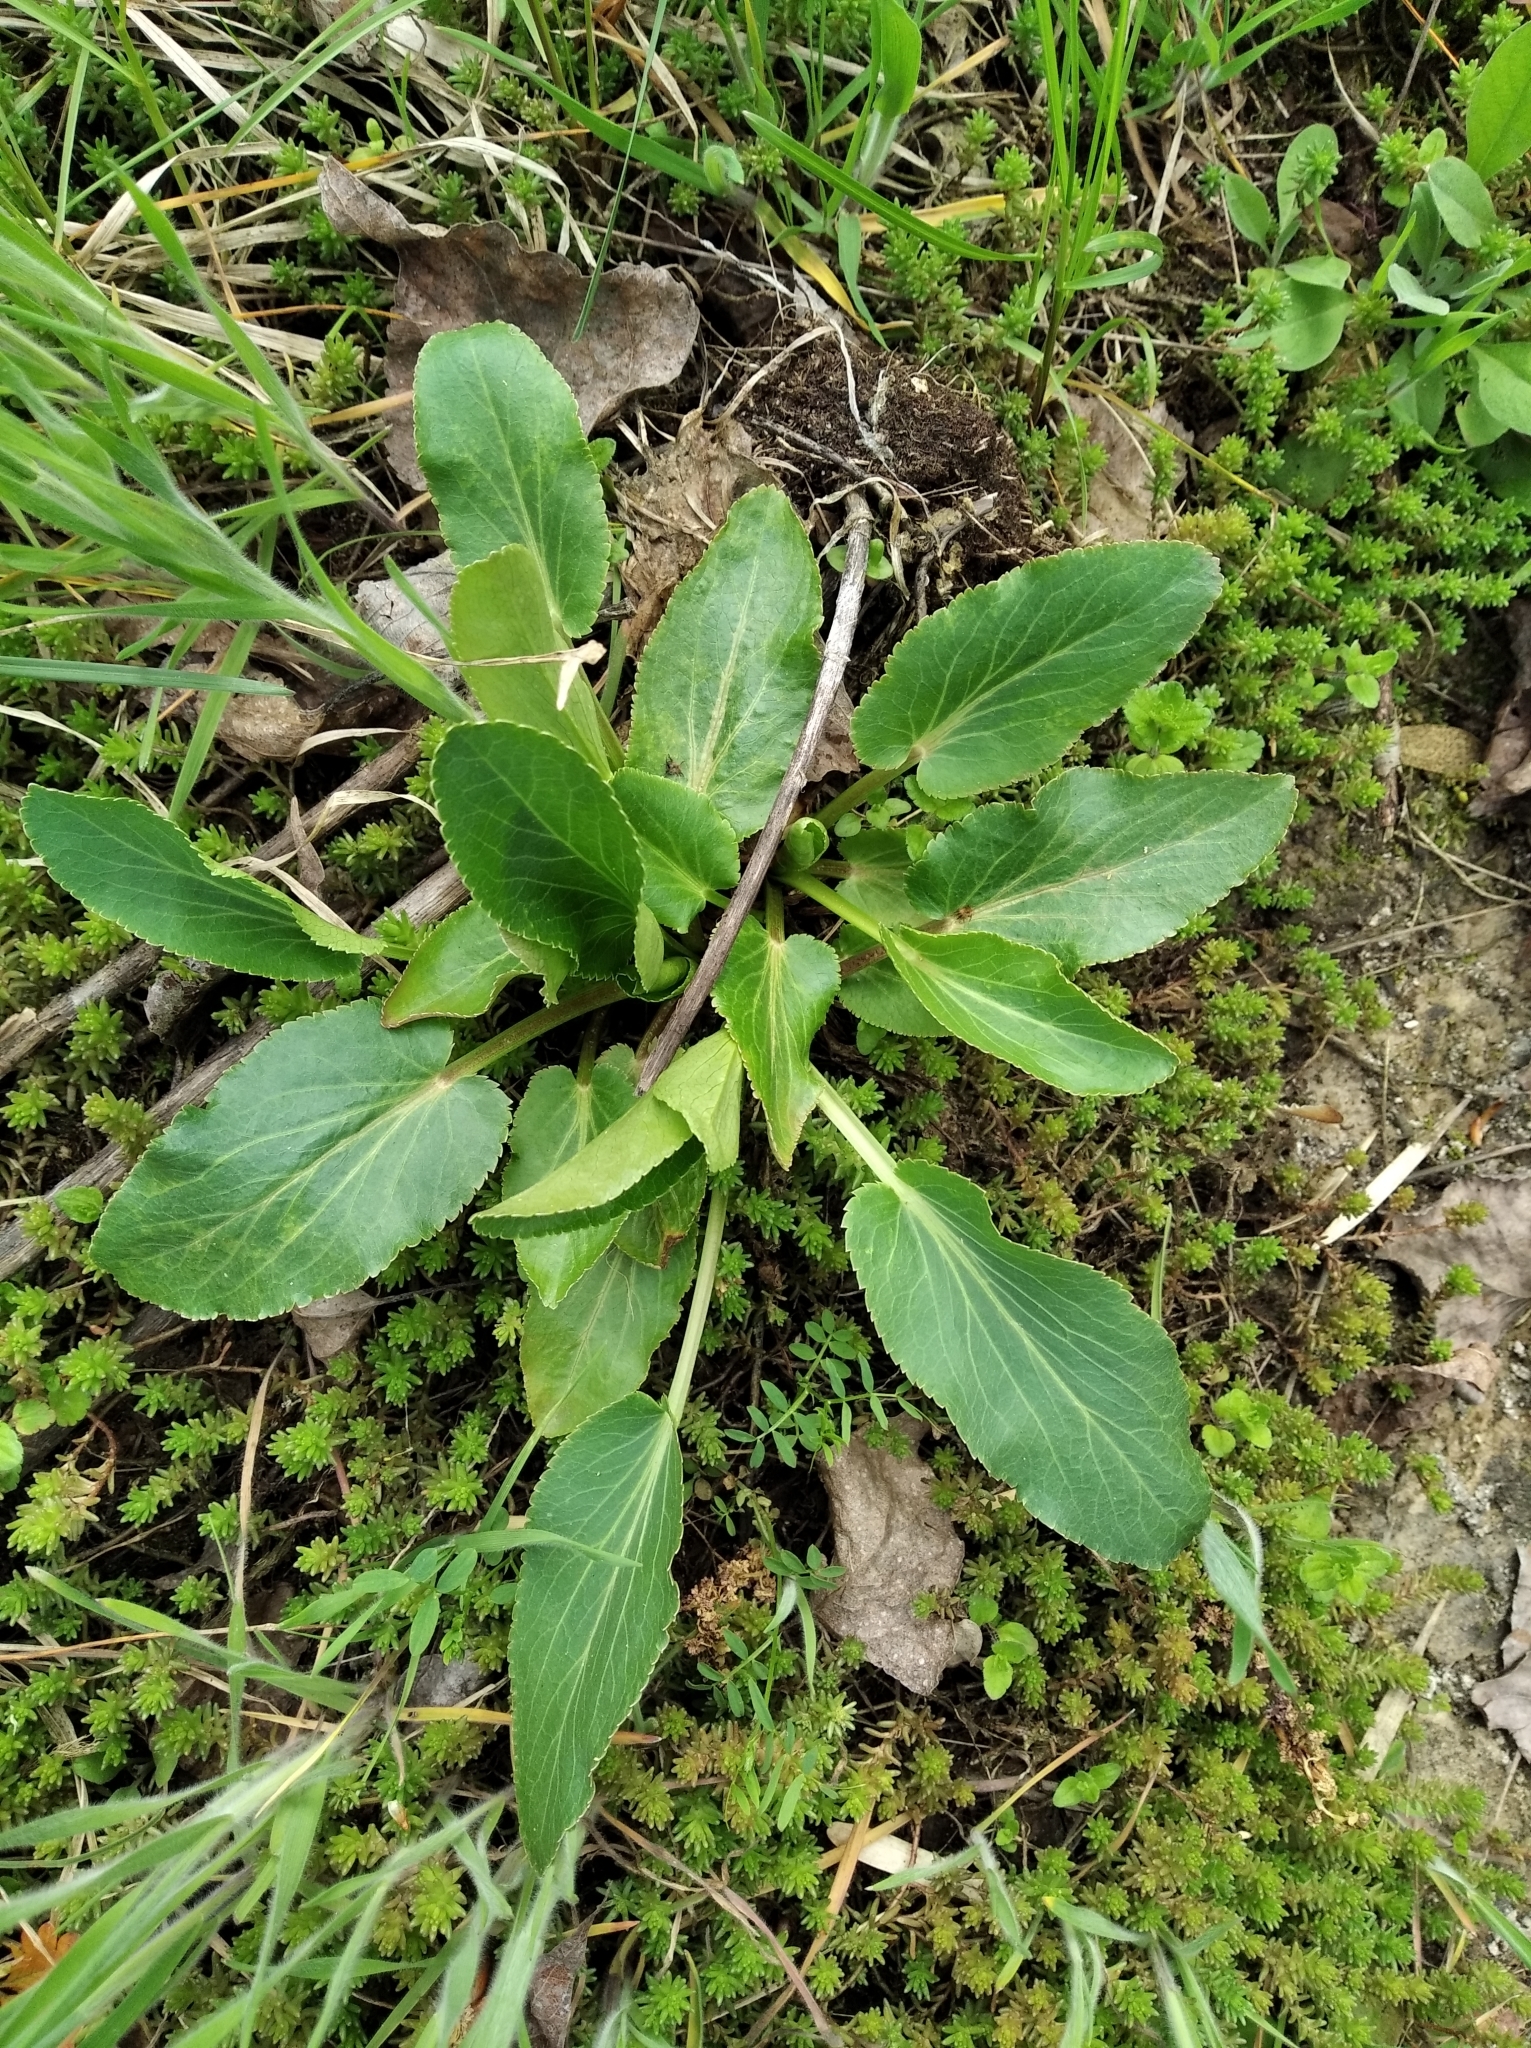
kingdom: Plantae
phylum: Tracheophyta
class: Magnoliopsida
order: Apiales
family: Apiaceae
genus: Eryngium
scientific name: Eryngium planum
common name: Blue eryngo
